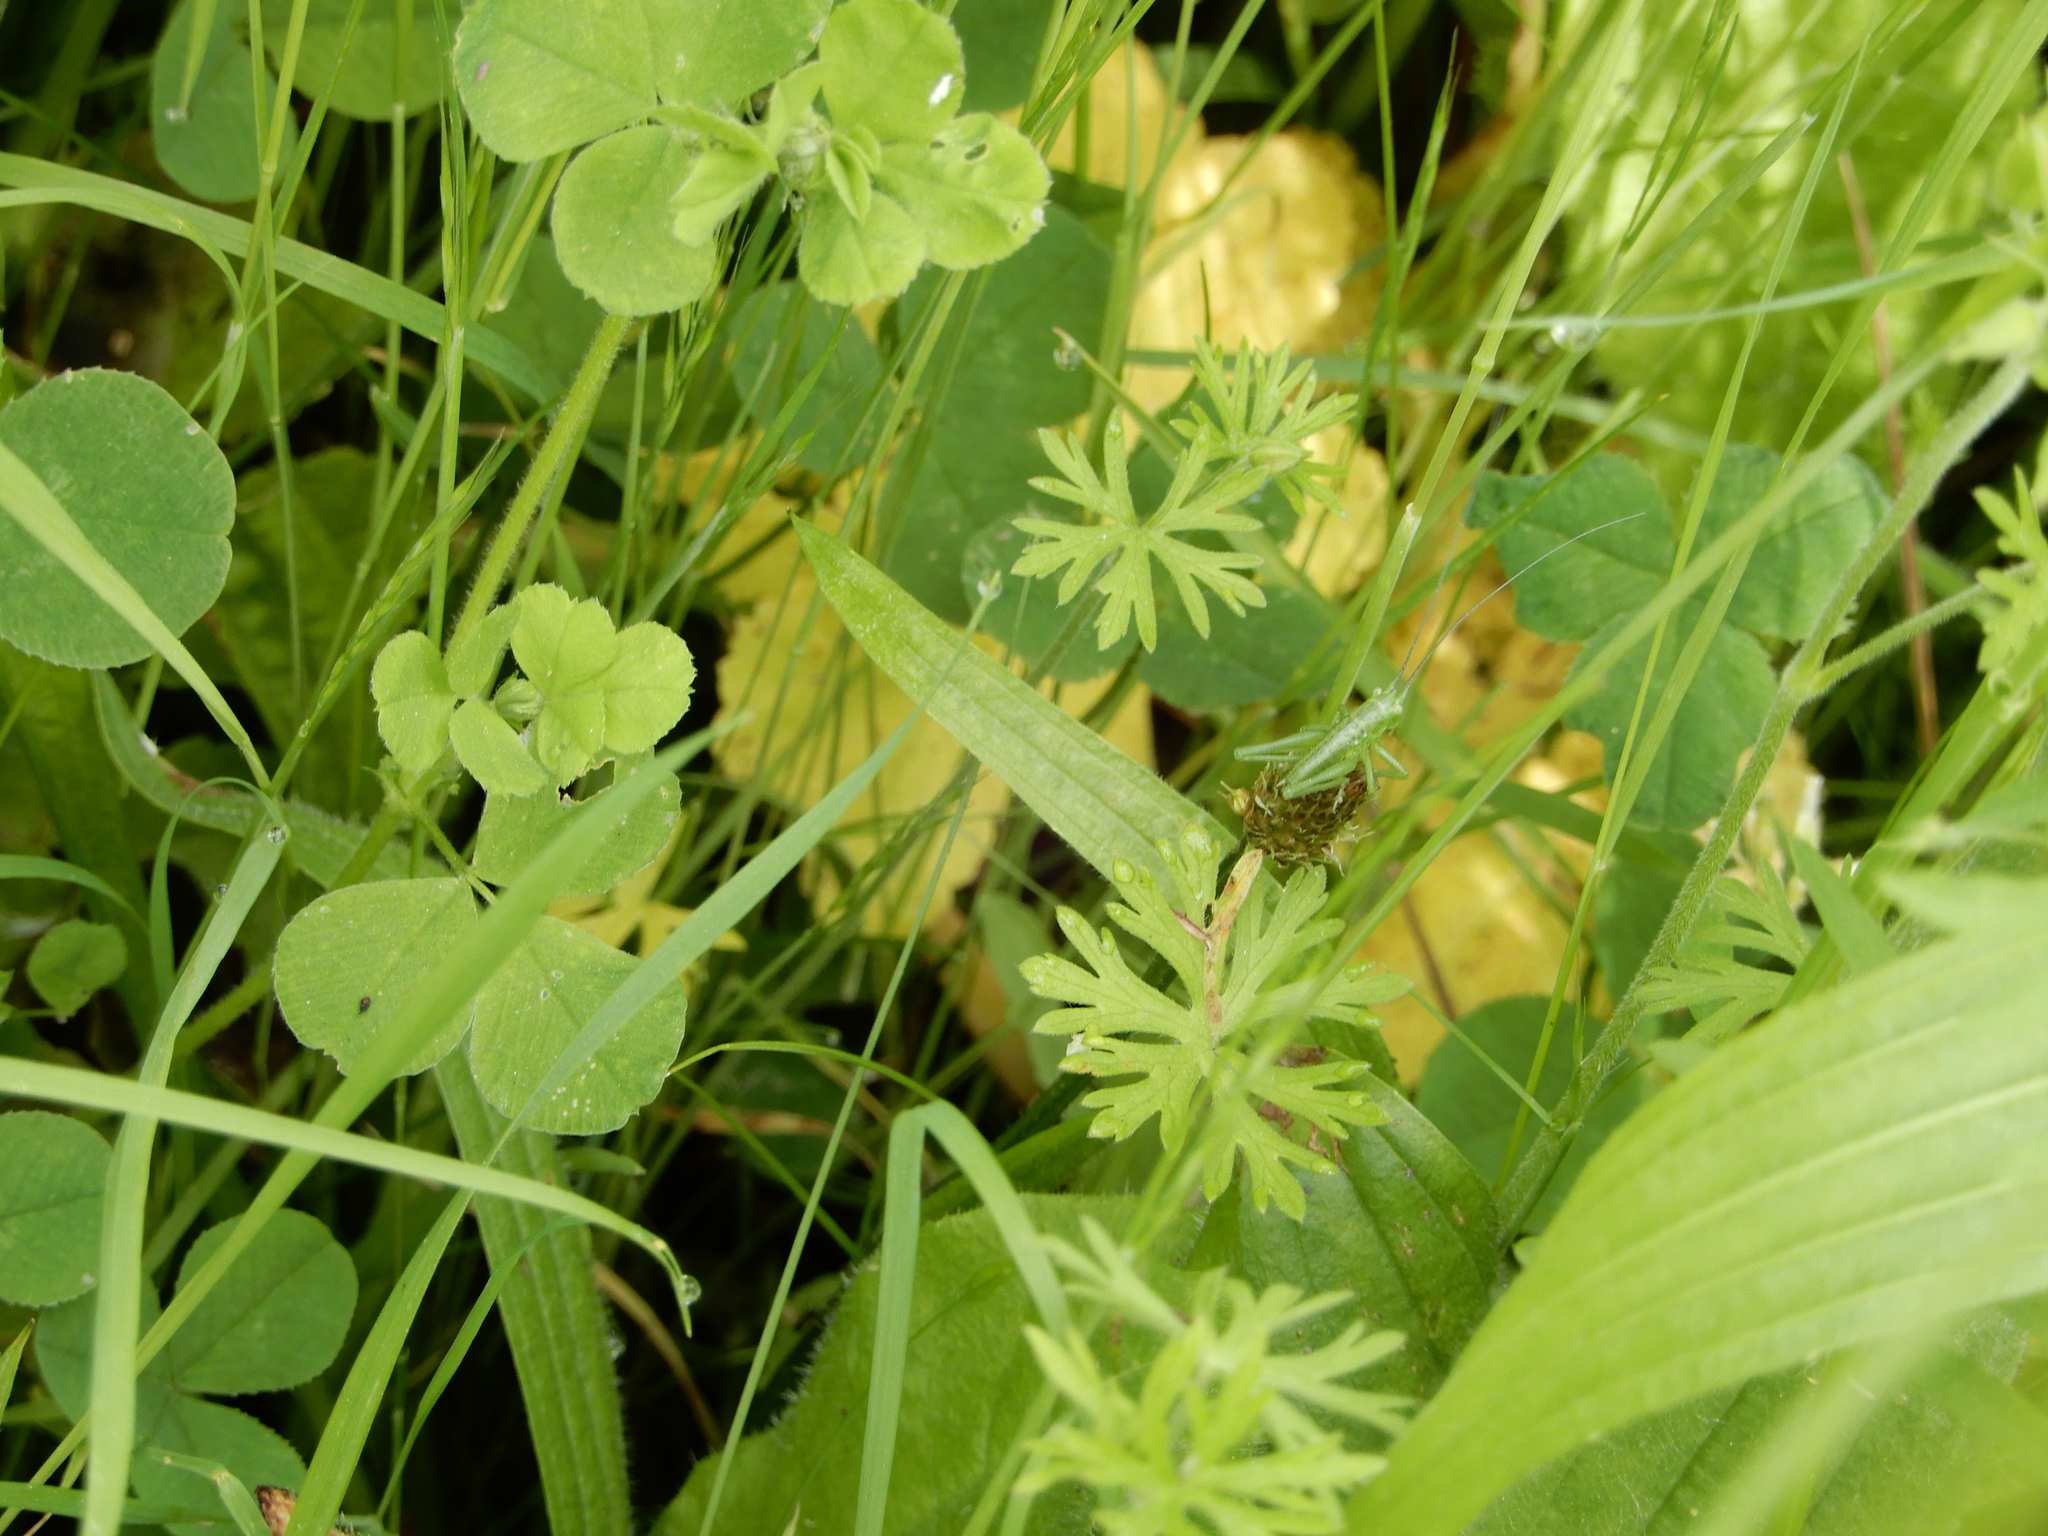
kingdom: Animalia
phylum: Arthropoda
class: Insecta
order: Orthoptera
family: Tettigoniidae
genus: Tettigonia
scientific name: Tettigonia viridissima
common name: Great green bush-cricket
